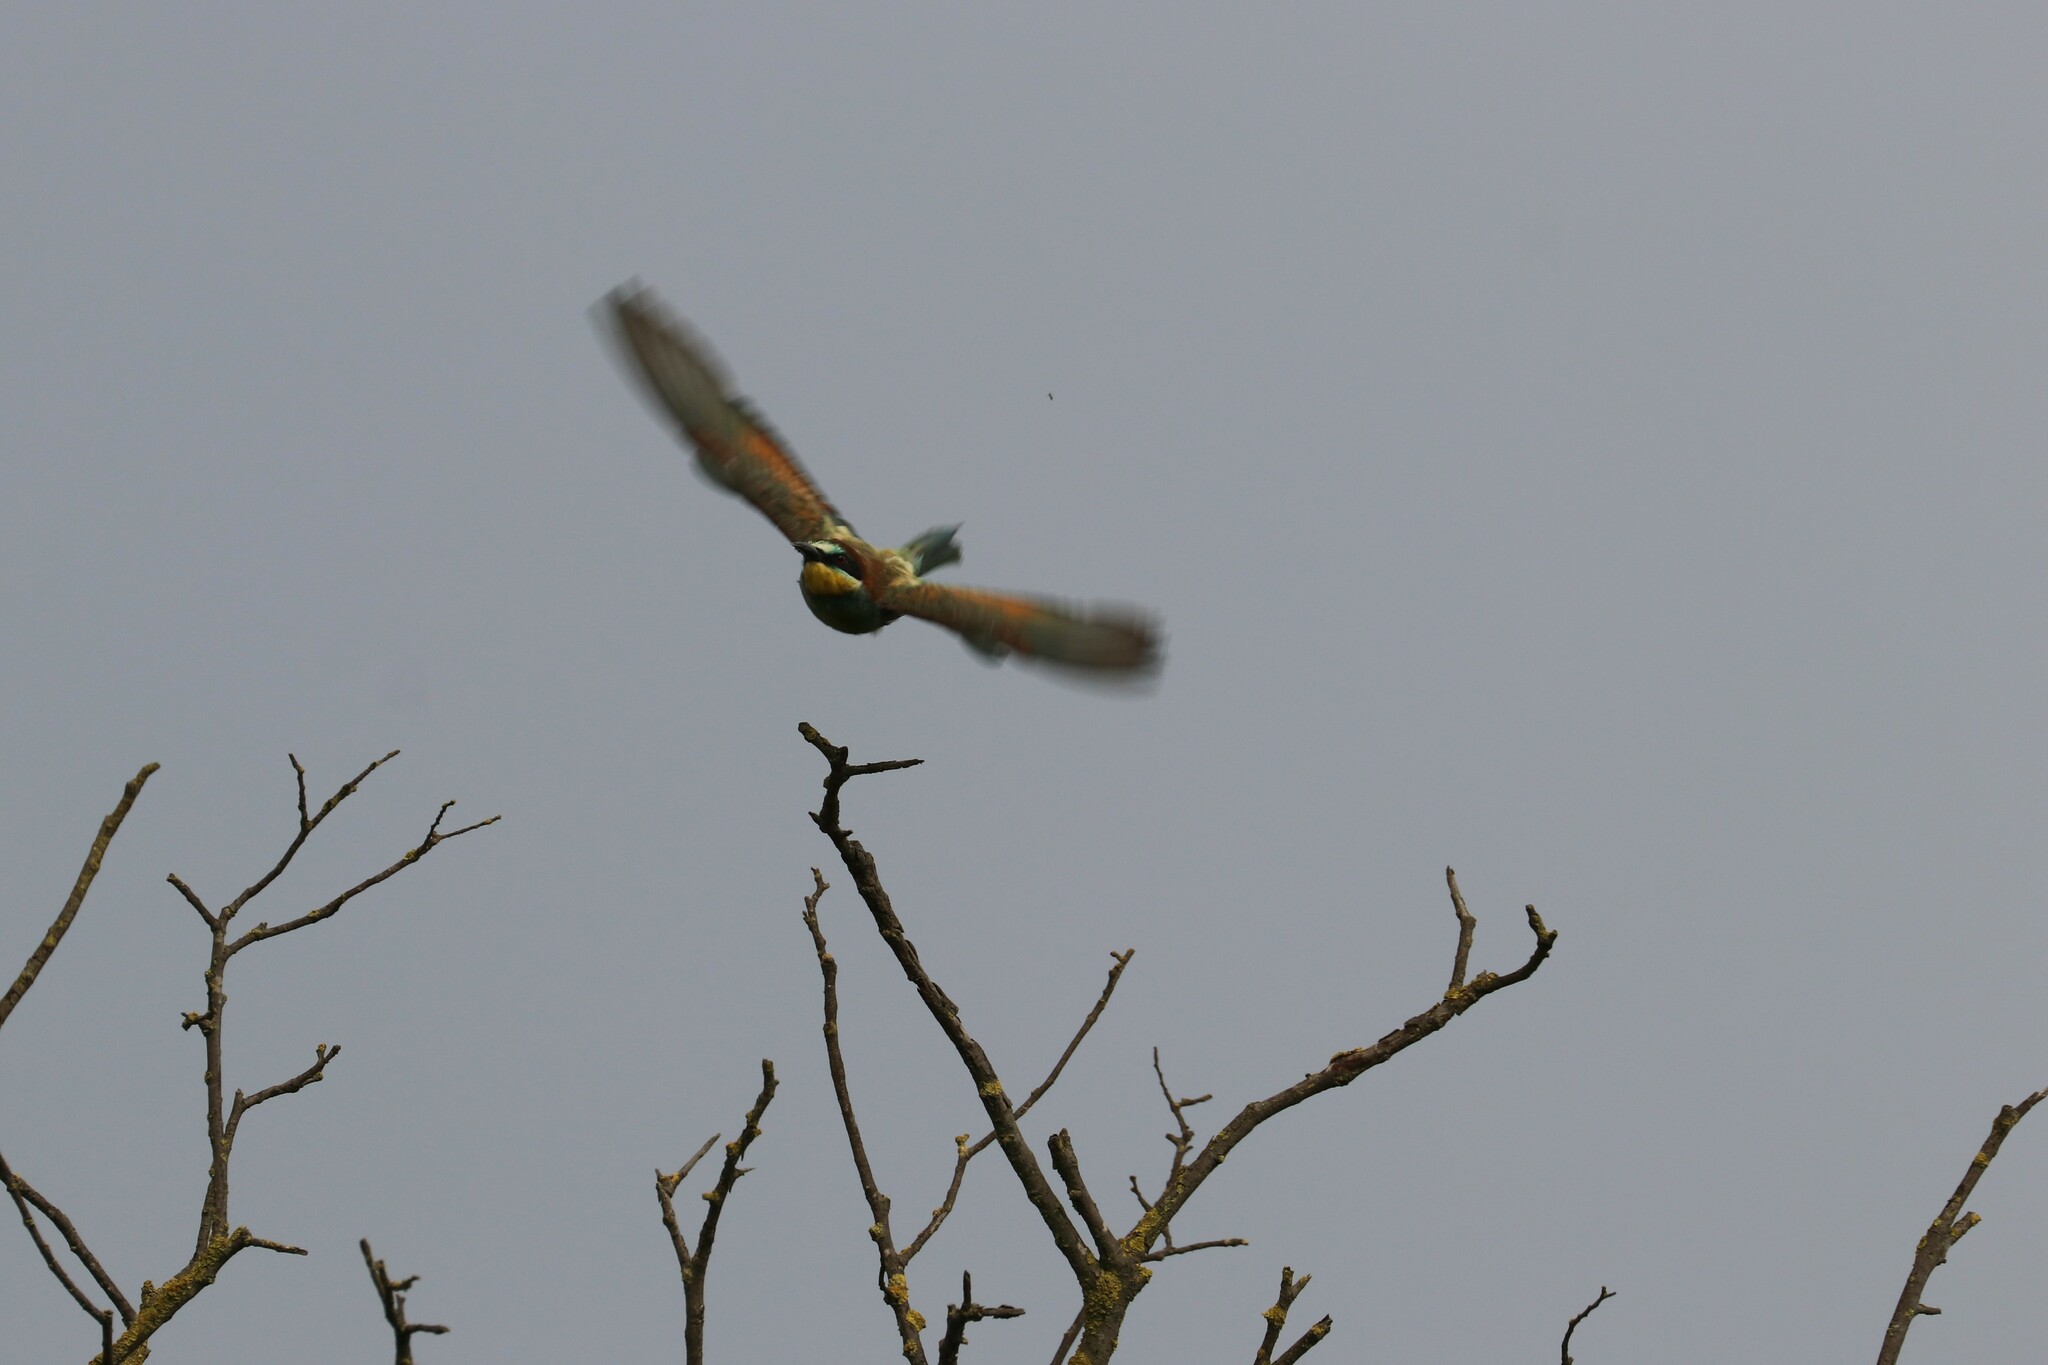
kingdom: Animalia
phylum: Chordata
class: Aves
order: Coraciiformes
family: Meropidae
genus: Merops
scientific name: Merops apiaster
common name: European bee-eater
